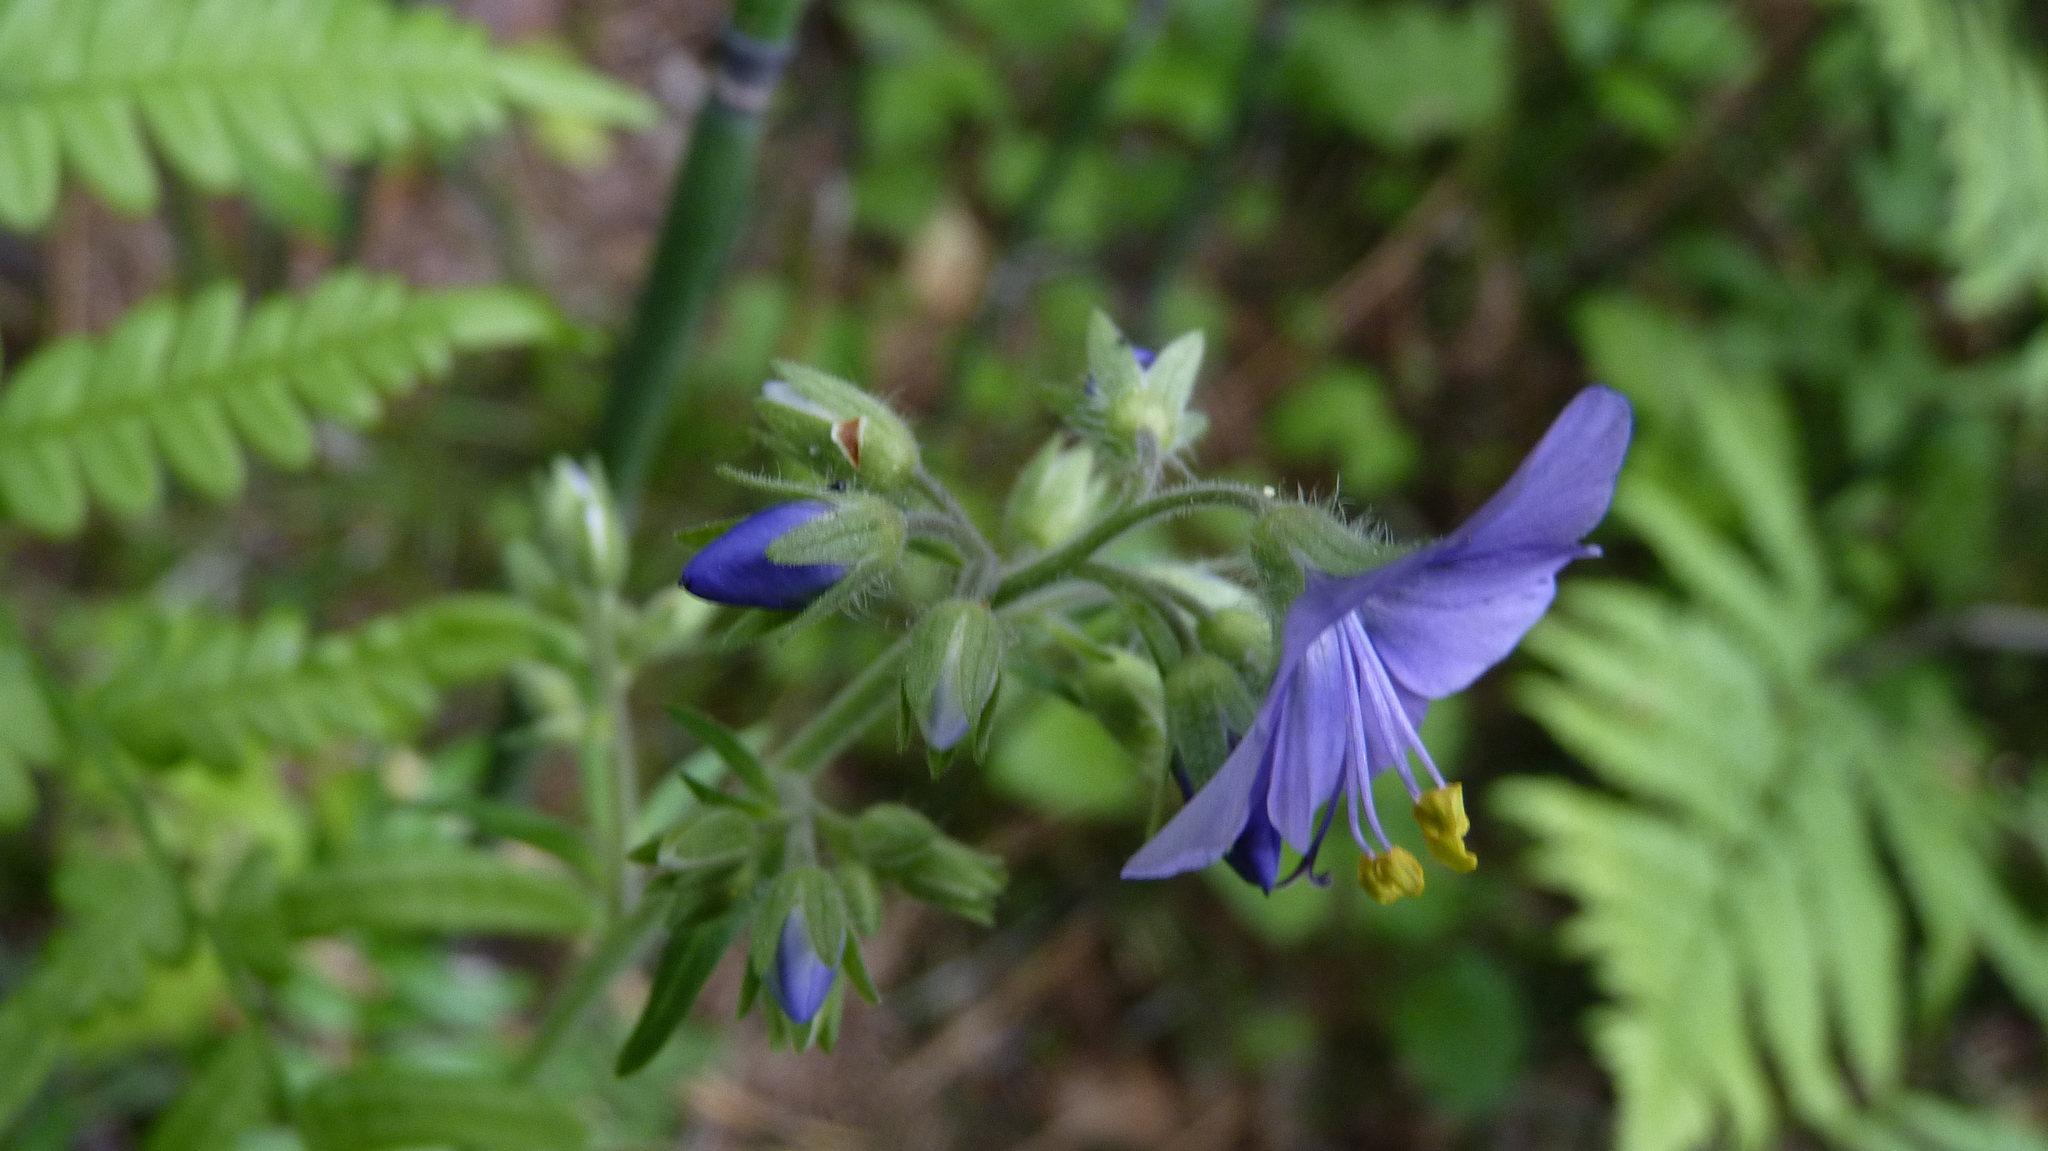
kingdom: Plantae
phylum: Tracheophyta
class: Magnoliopsida
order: Ericales
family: Polemoniaceae
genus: Polemonium
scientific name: Polemonium caeruleum
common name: Jacob's-ladder
